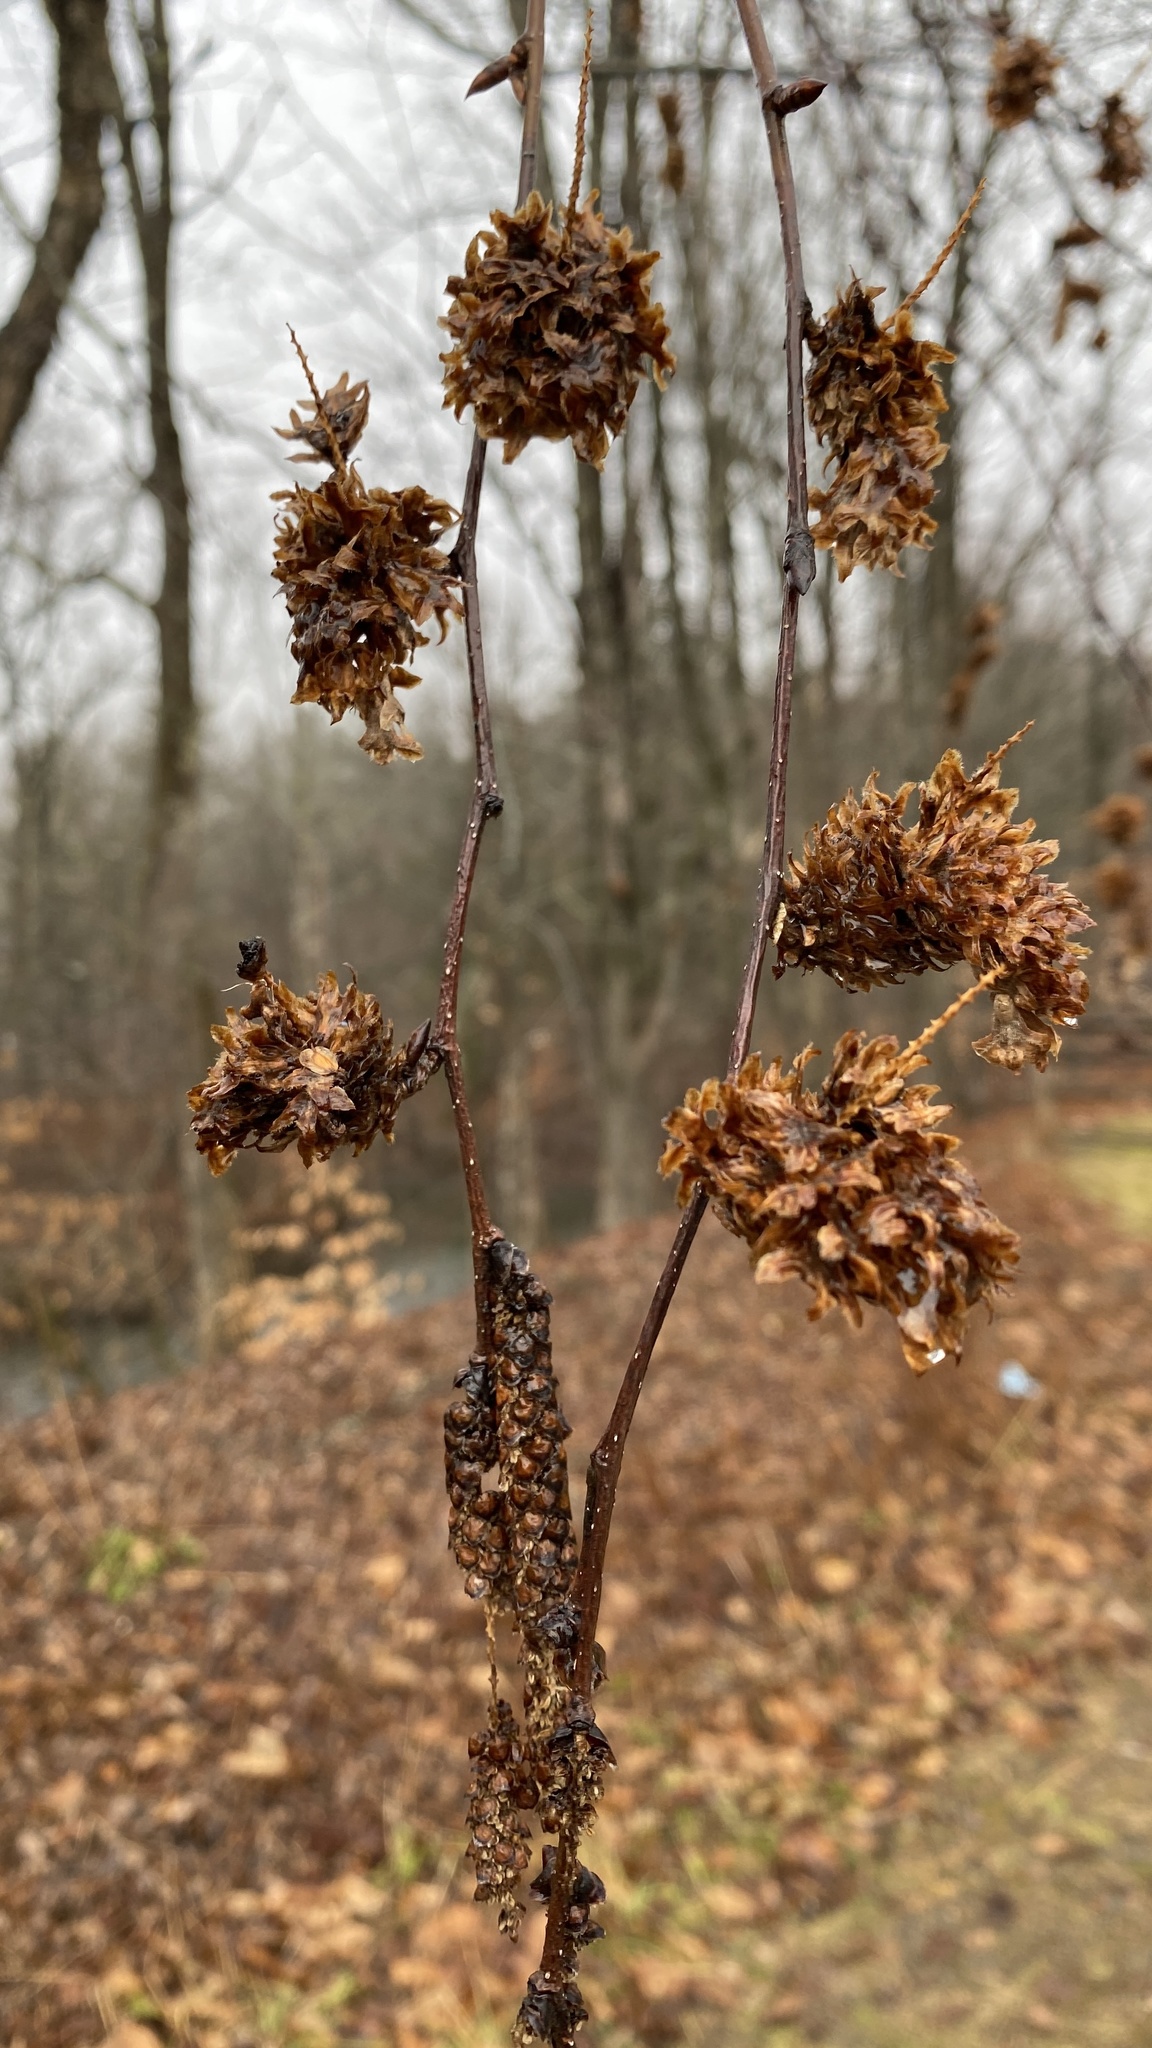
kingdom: Plantae
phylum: Tracheophyta
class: Magnoliopsida
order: Fagales
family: Betulaceae
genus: Betula
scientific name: Betula alleghaniensis
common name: Yellow birch
